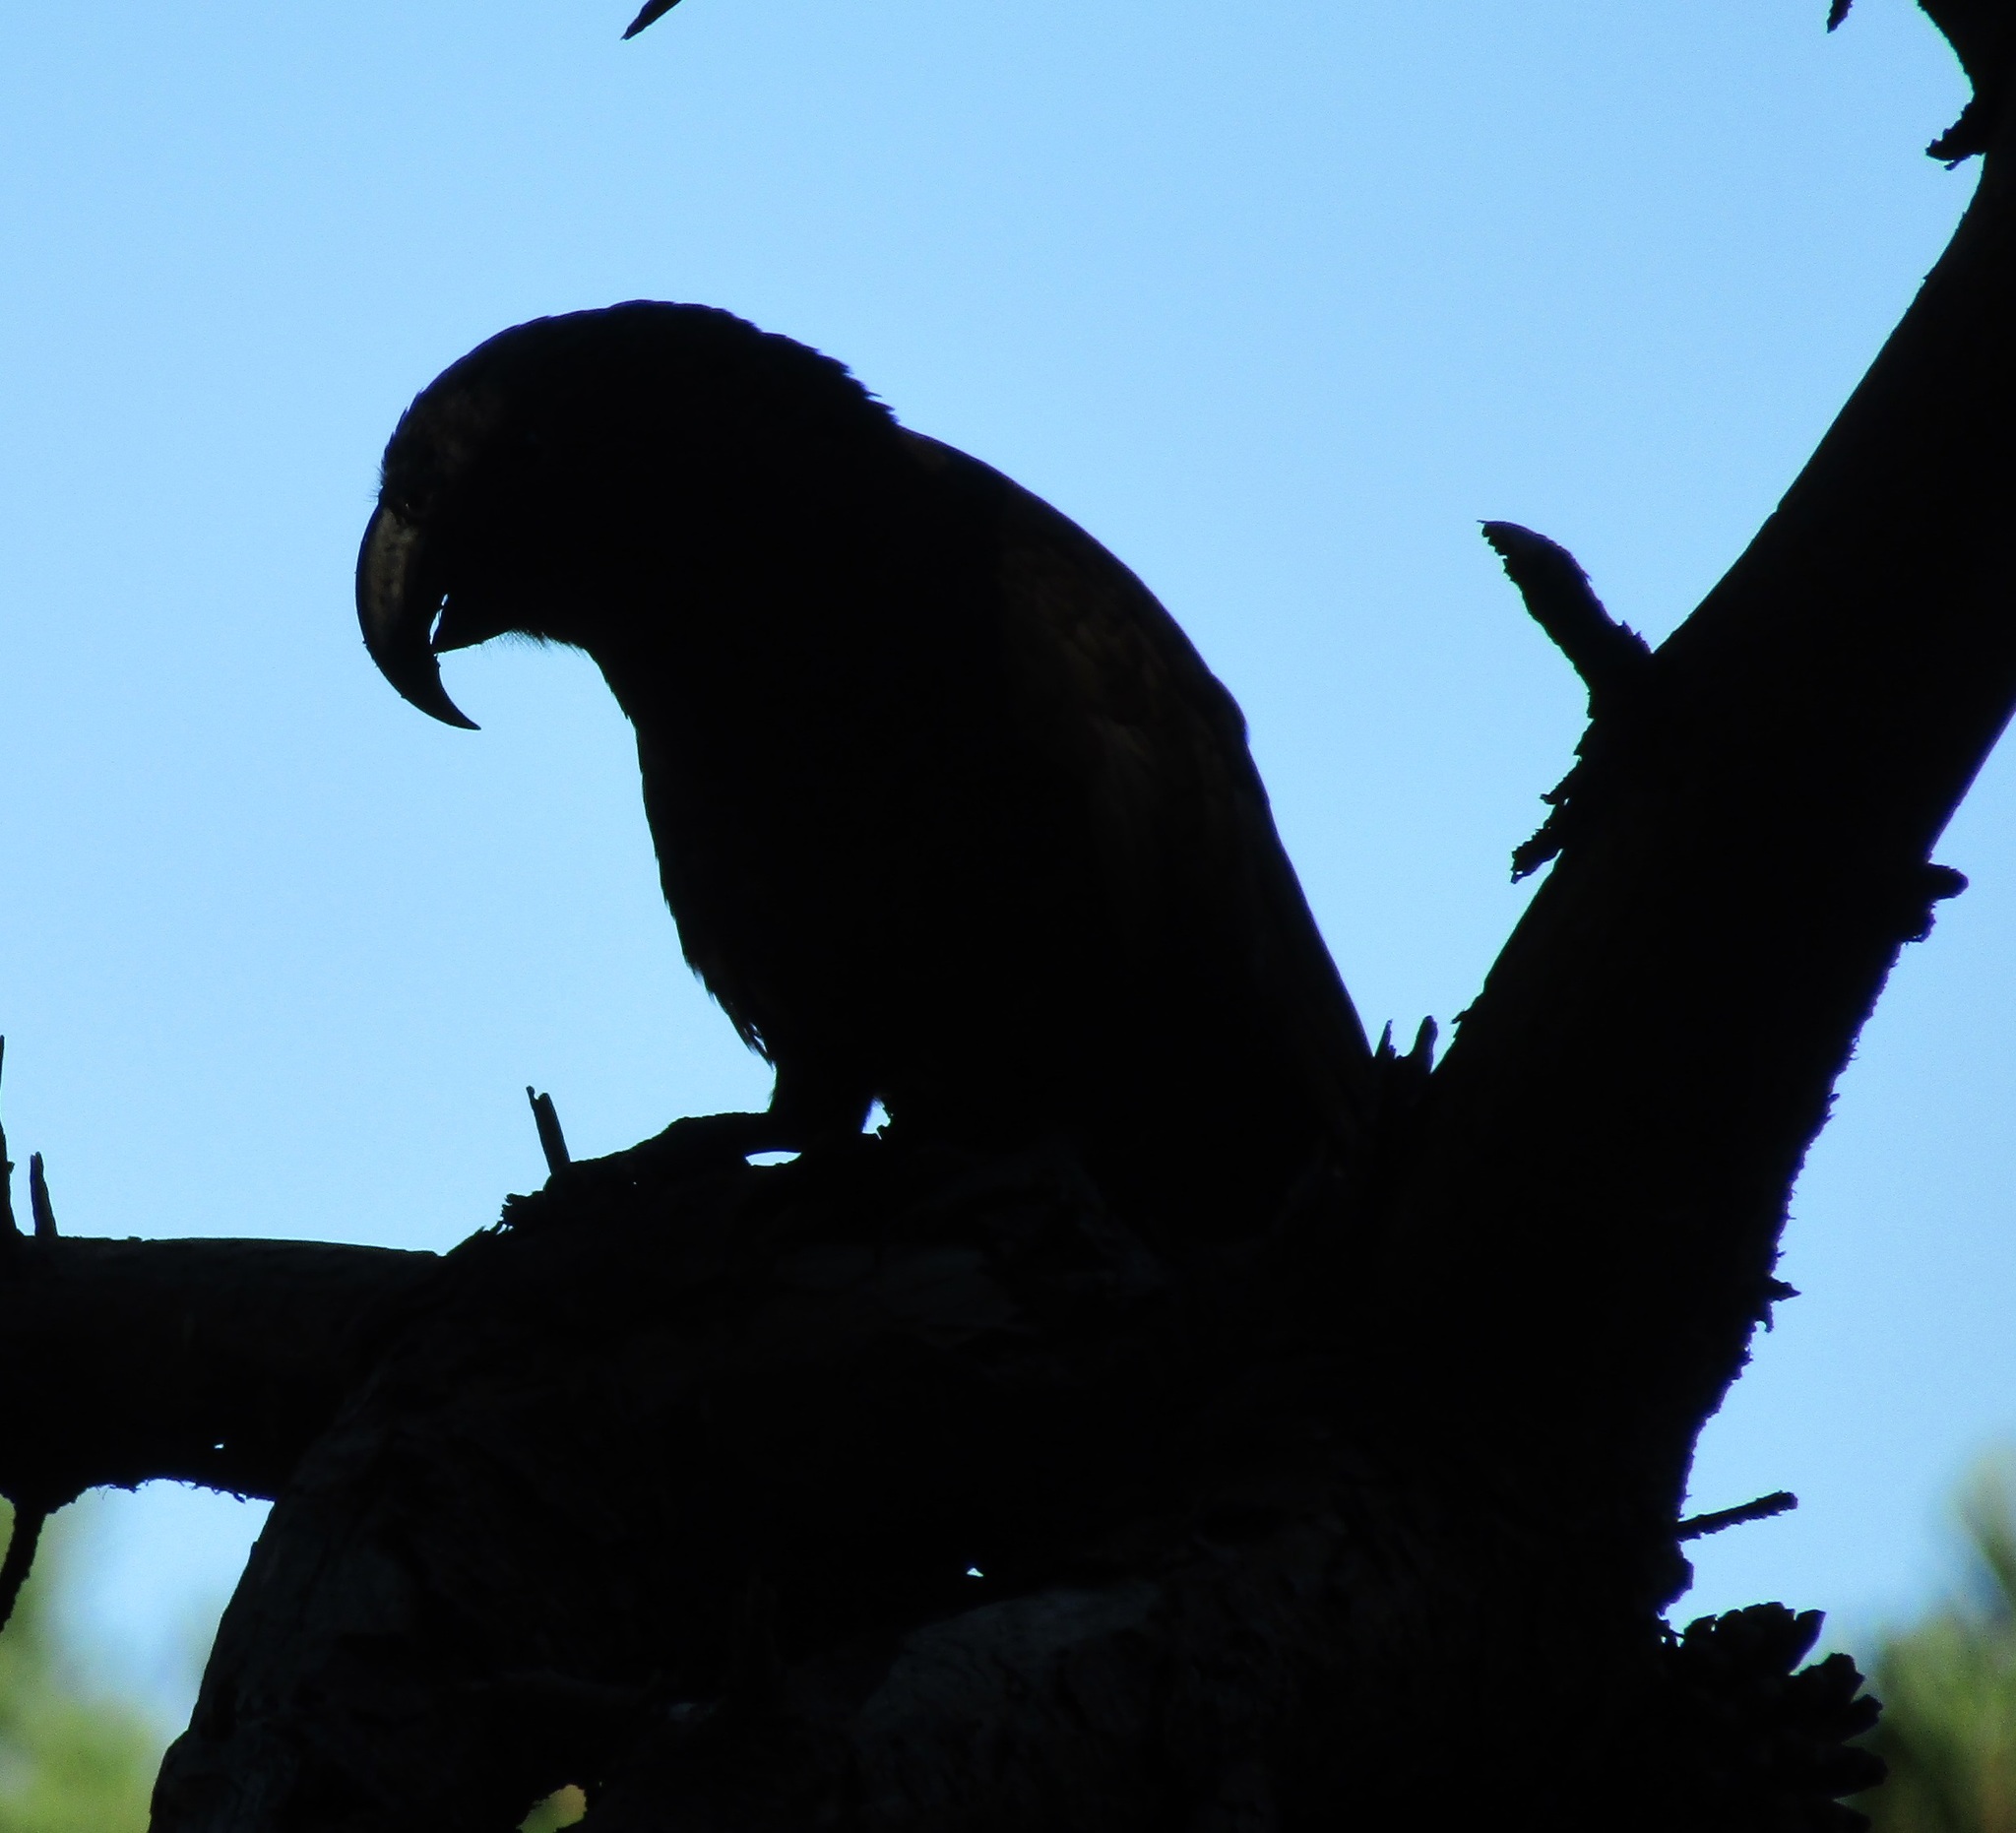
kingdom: Animalia
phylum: Chordata
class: Aves
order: Psittaciformes
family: Psittacidae
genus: Nestor
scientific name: Nestor meridionalis
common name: New zealand kaka
